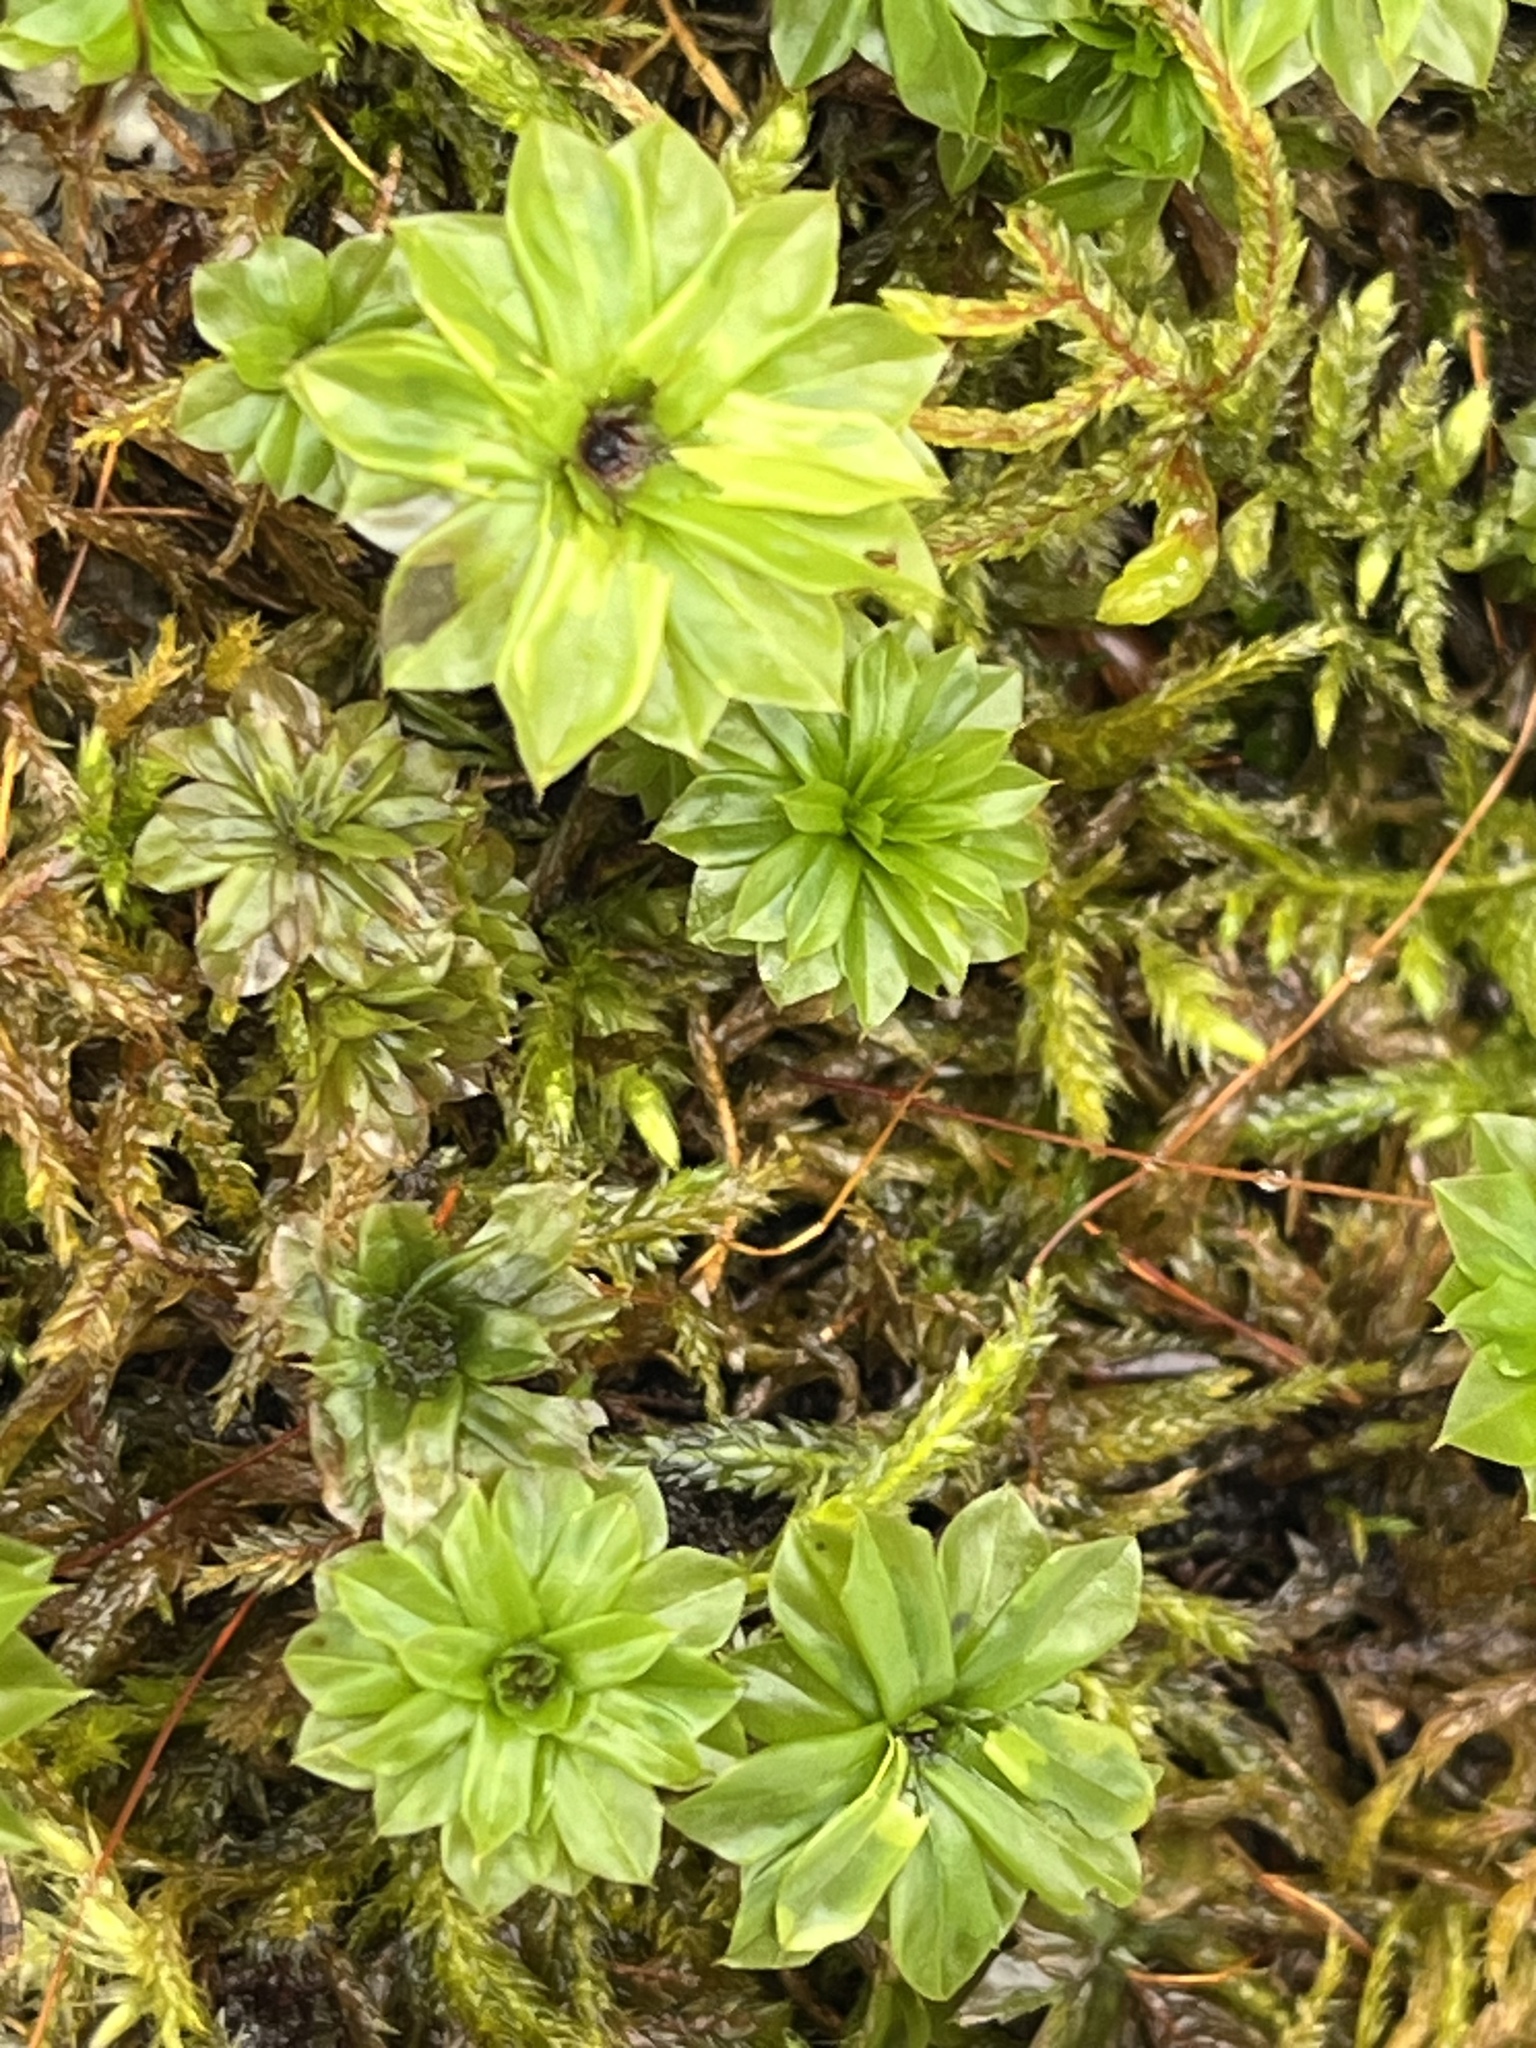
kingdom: Plantae
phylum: Bryophyta
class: Bryopsida
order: Bryales
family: Bryaceae
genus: Rhodobryum
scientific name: Rhodobryum ontariense
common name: Ontario rhodobryum moss
